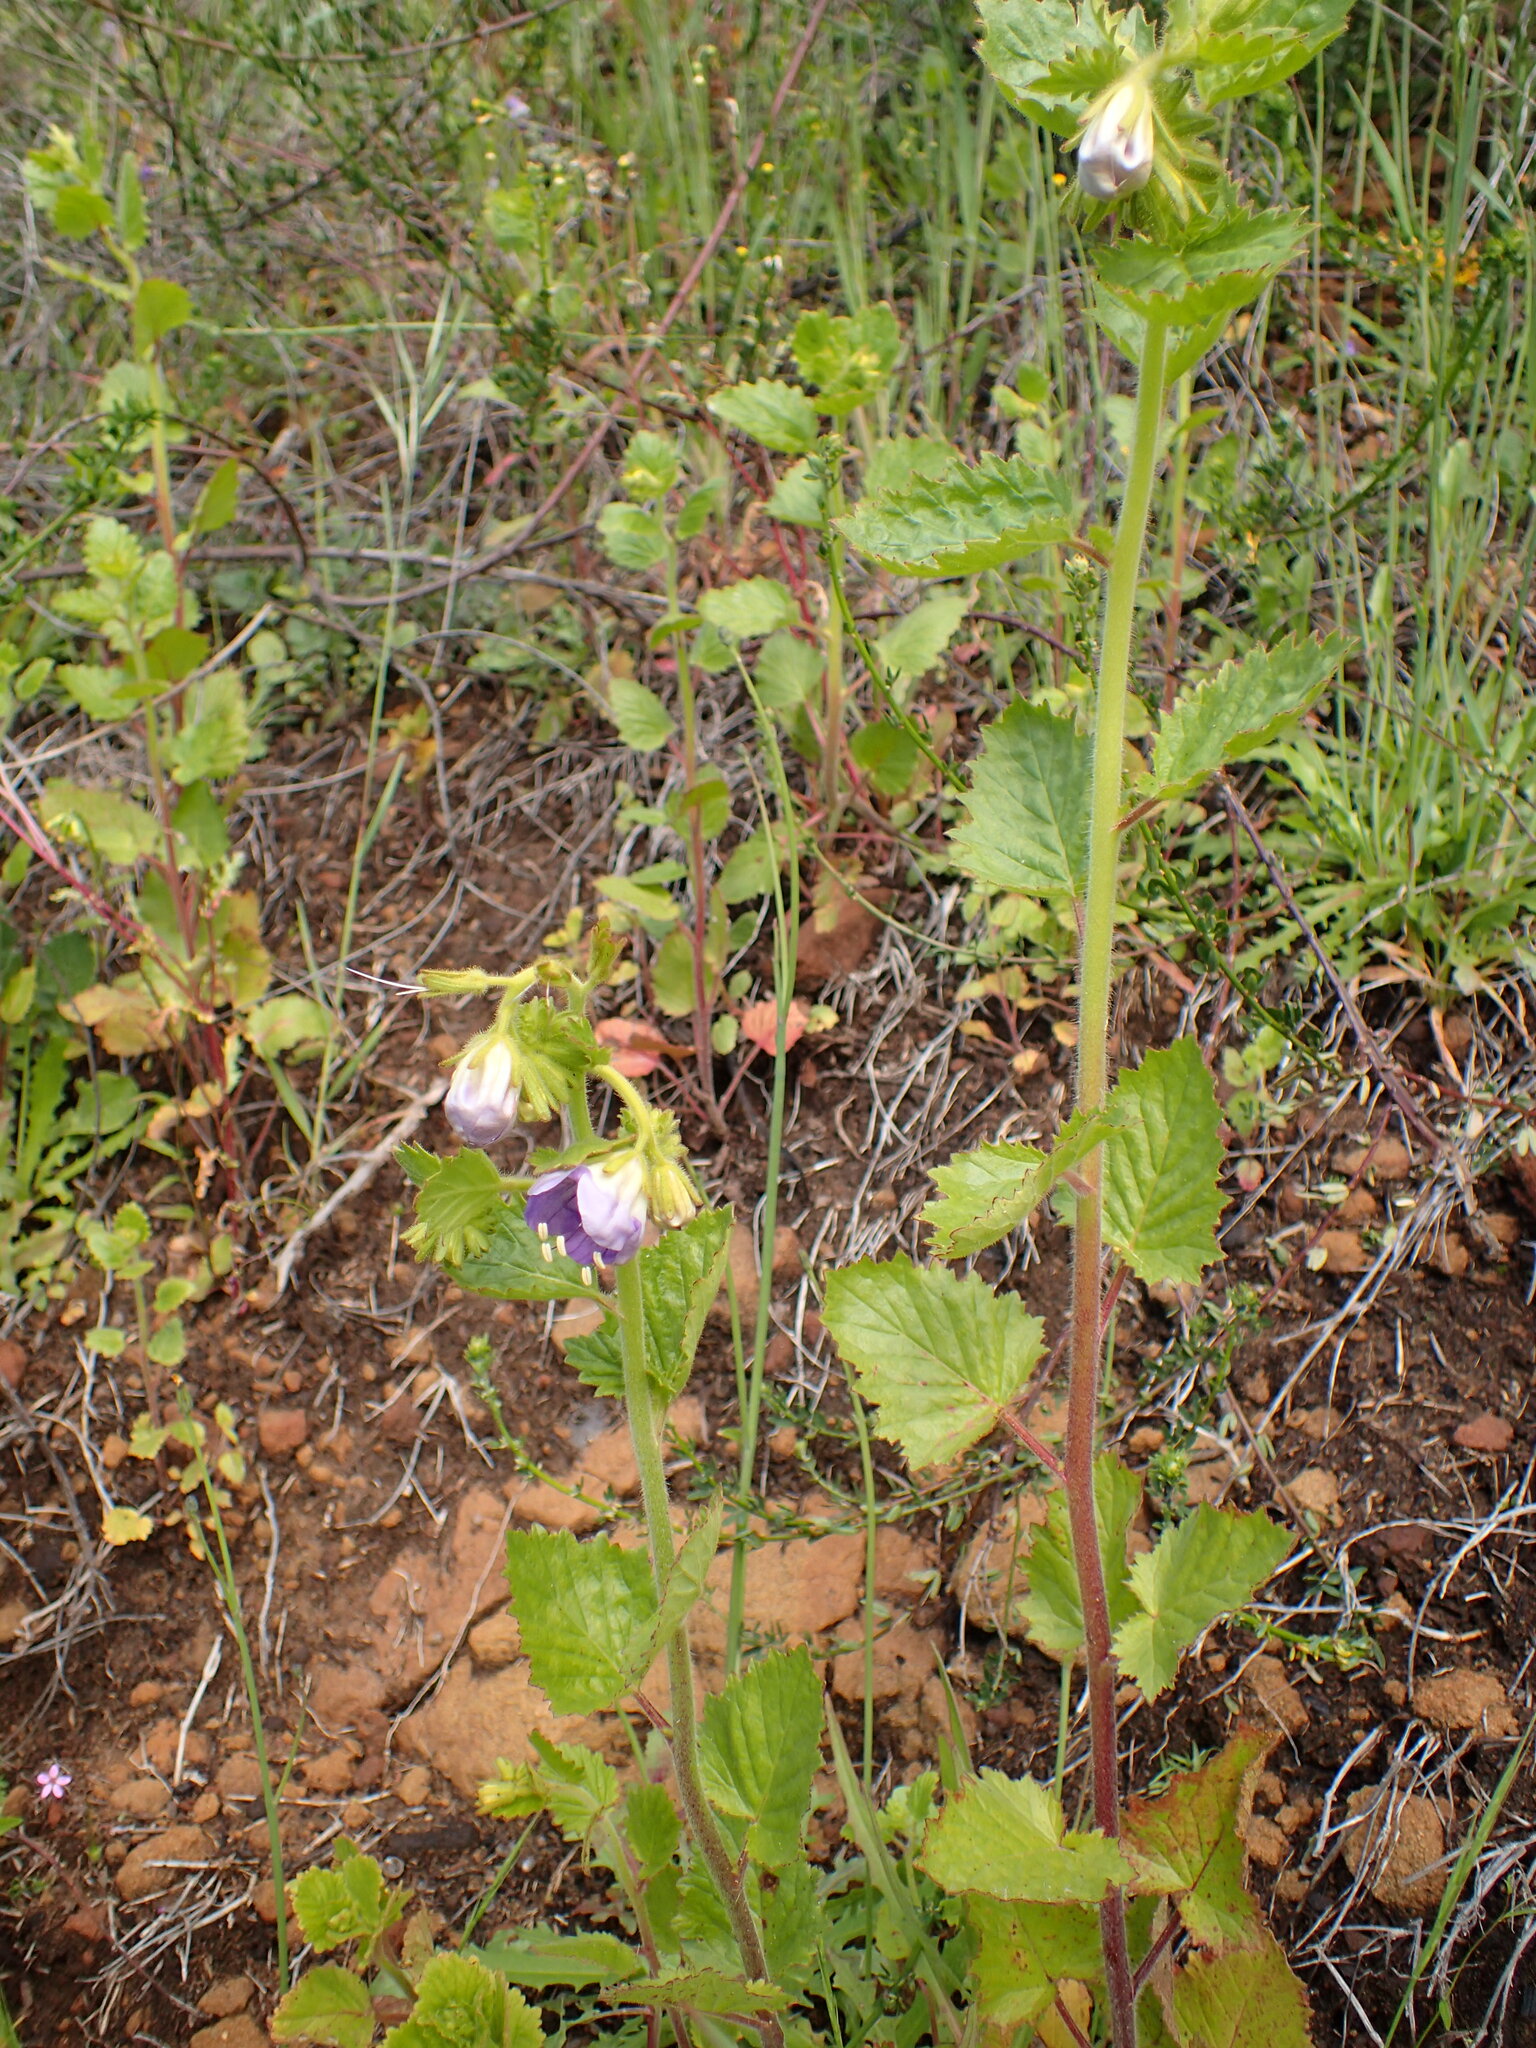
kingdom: Plantae
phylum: Tracheophyta
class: Magnoliopsida
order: Boraginales
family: Hydrophyllaceae
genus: Phacelia
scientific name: Phacelia grandiflora
